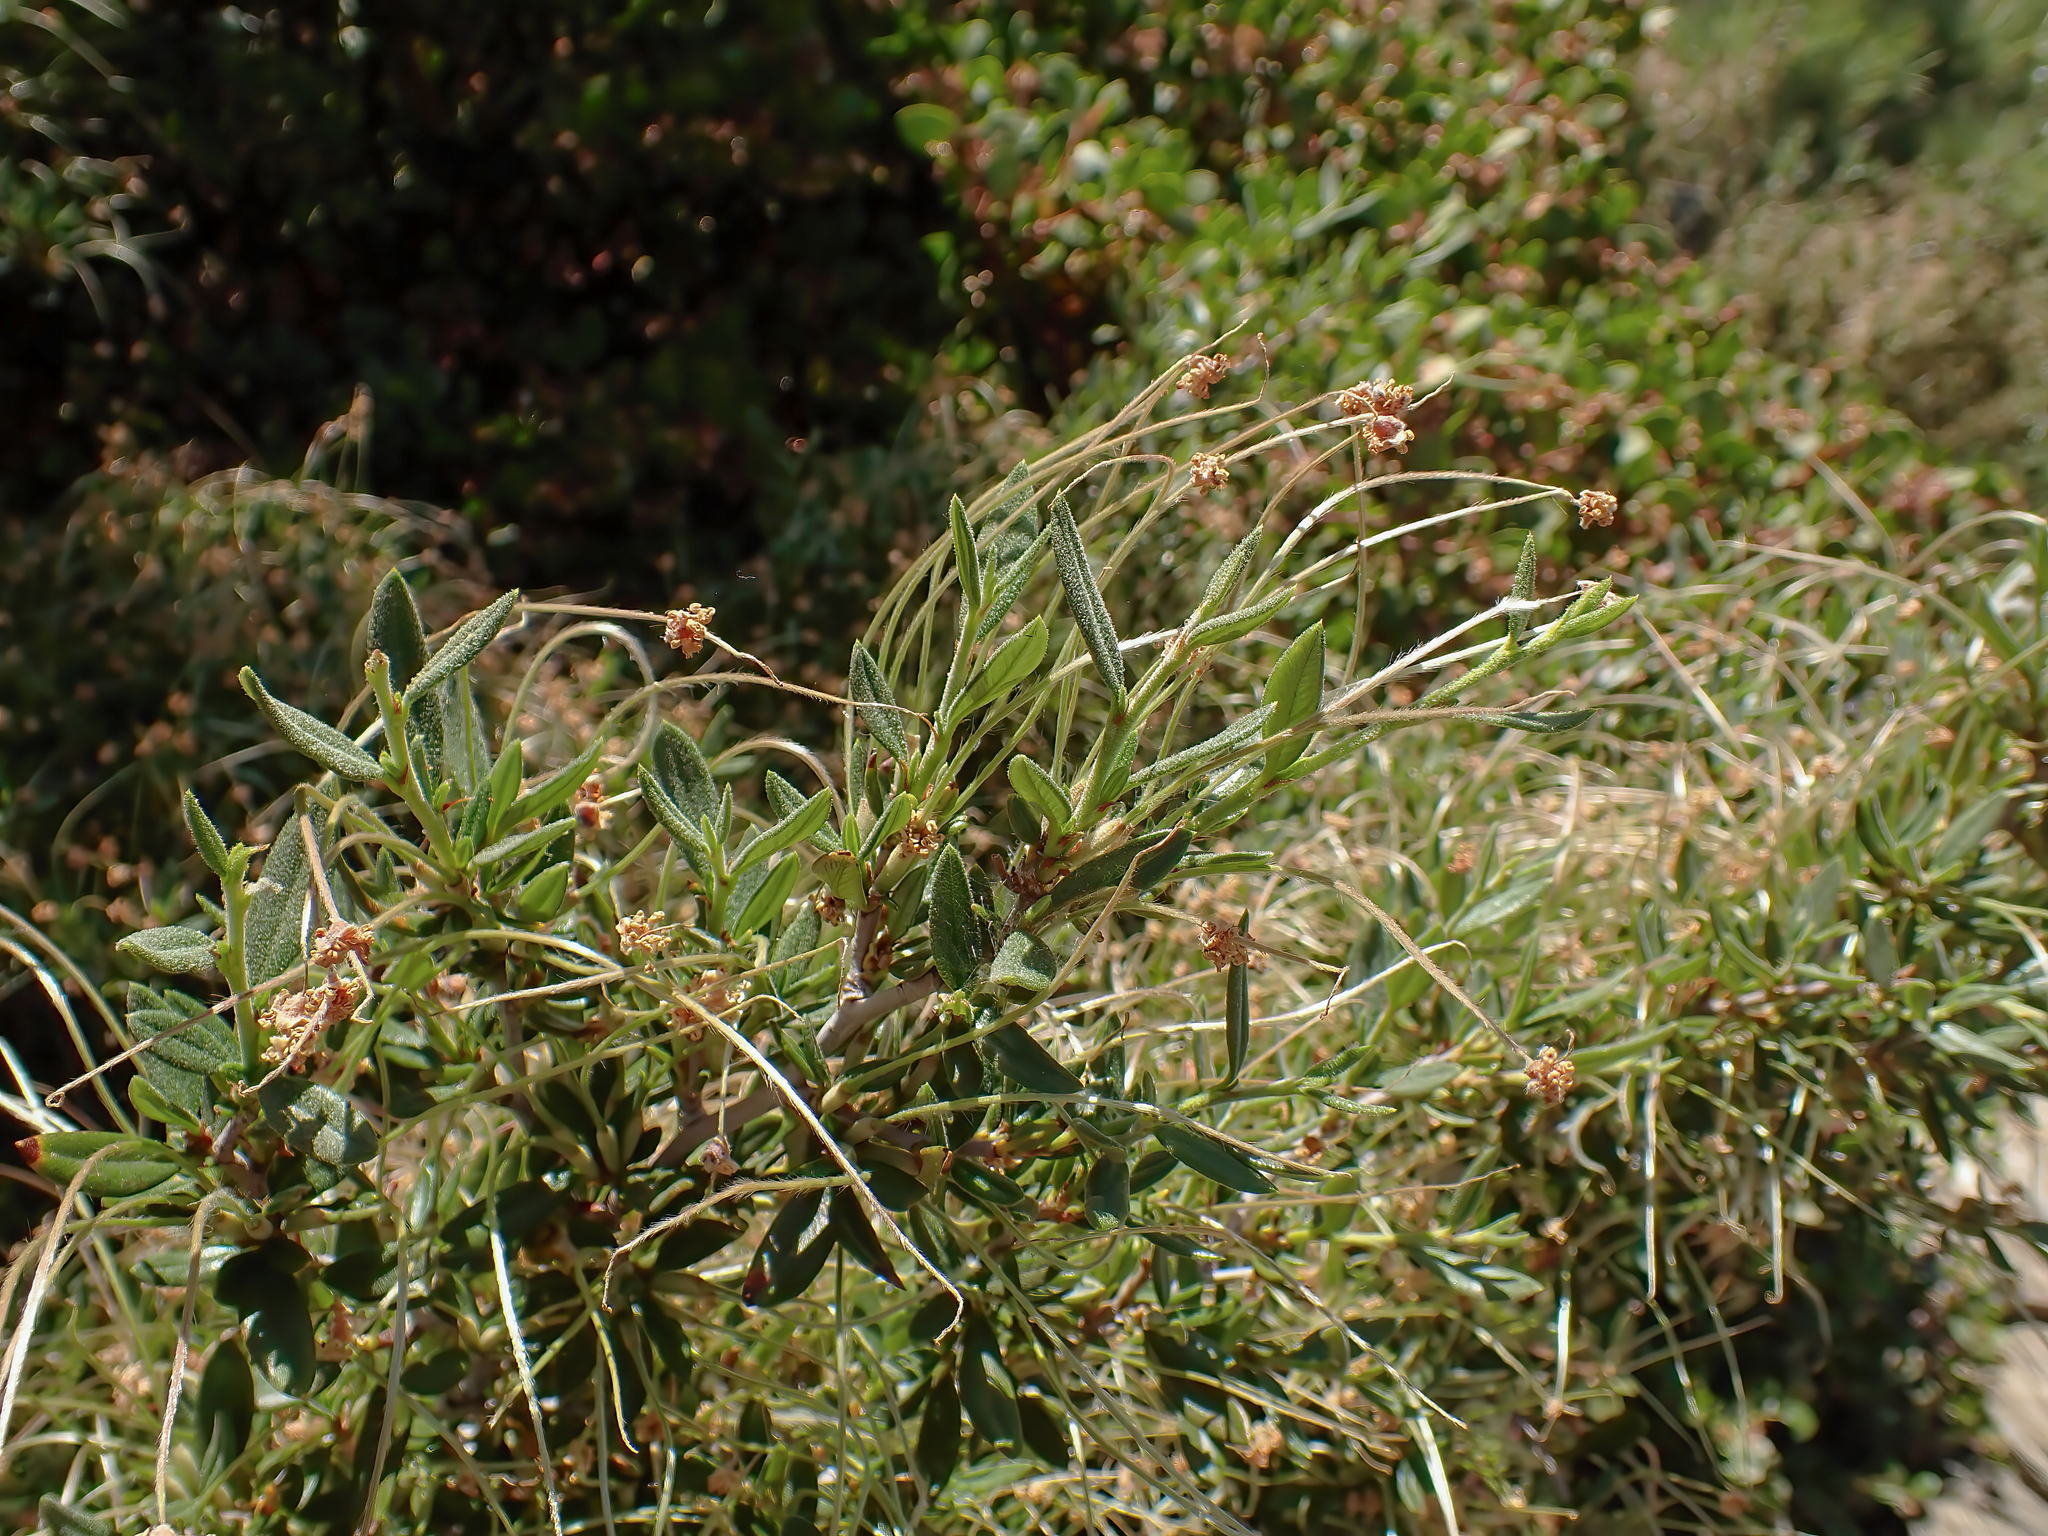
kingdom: Plantae
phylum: Tracheophyta
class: Magnoliopsida
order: Rosales
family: Rosaceae
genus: Cercocarpus
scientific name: Cercocarpus ledifolius
